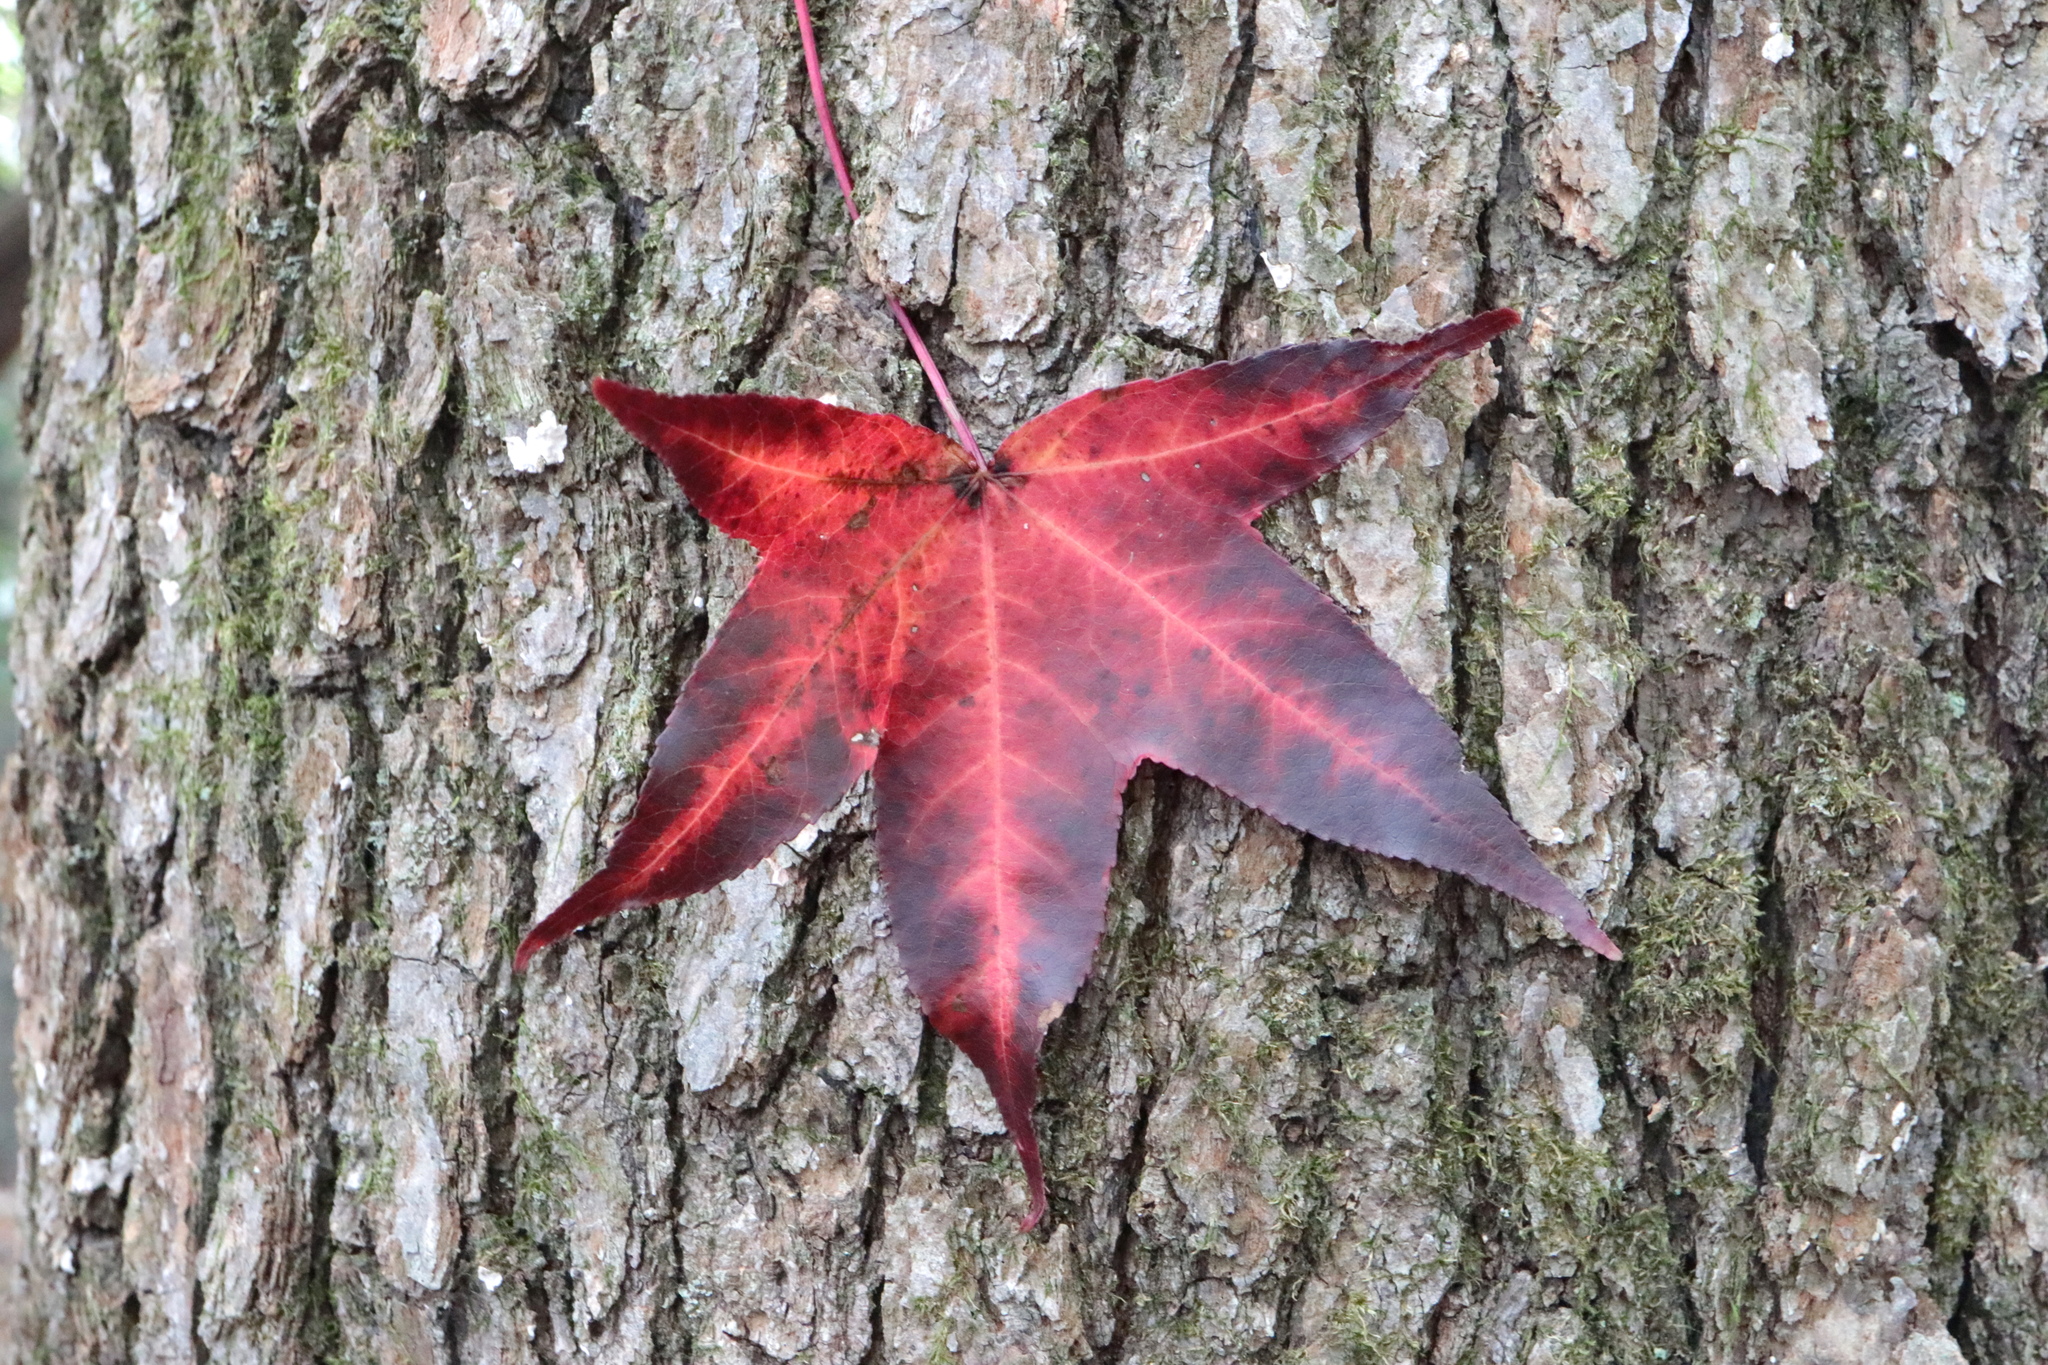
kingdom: Plantae
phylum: Tracheophyta
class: Magnoliopsida
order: Saxifragales
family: Altingiaceae
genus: Liquidambar
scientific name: Liquidambar styraciflua
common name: Sweet gum
